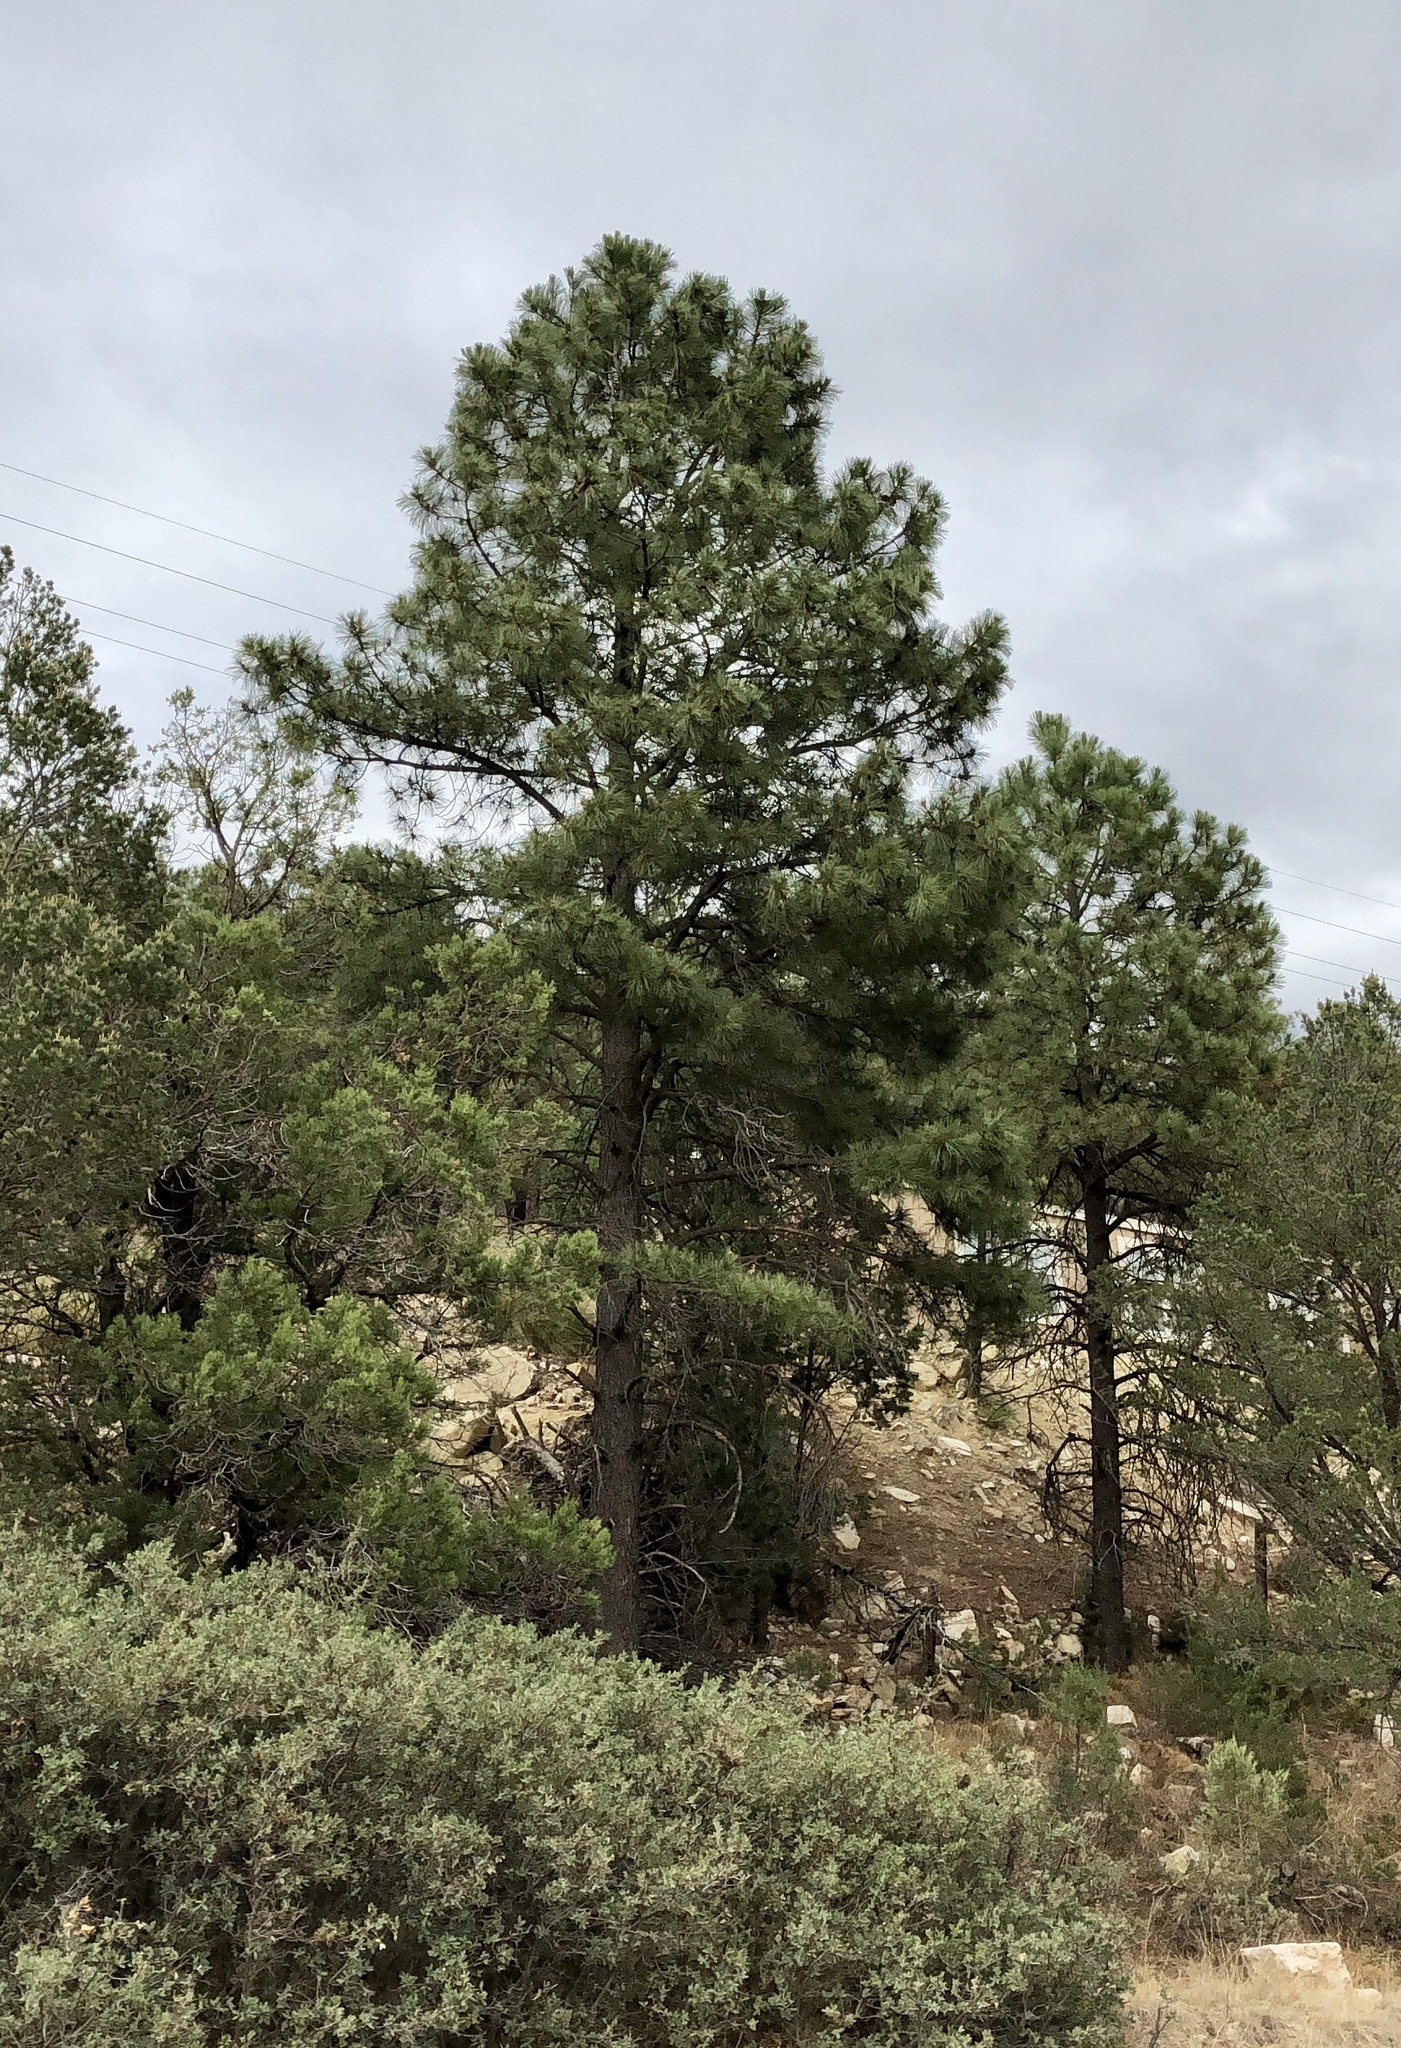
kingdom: Plantae
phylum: Tracheophyta
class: Pinopsida
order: Pinales
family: Pinaceae
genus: Pinus
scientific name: Pinus ponderosa
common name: Western yellow-pine
